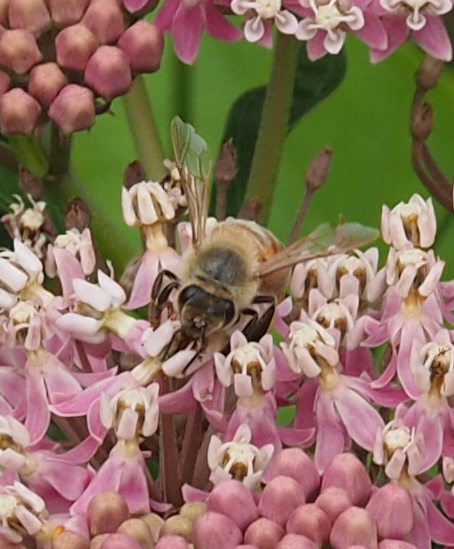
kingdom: Animalia
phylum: Arthropoda
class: Insecta
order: Hymenoptera
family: Apidae
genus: Apis
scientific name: Apis mellifera
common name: Honey bee
